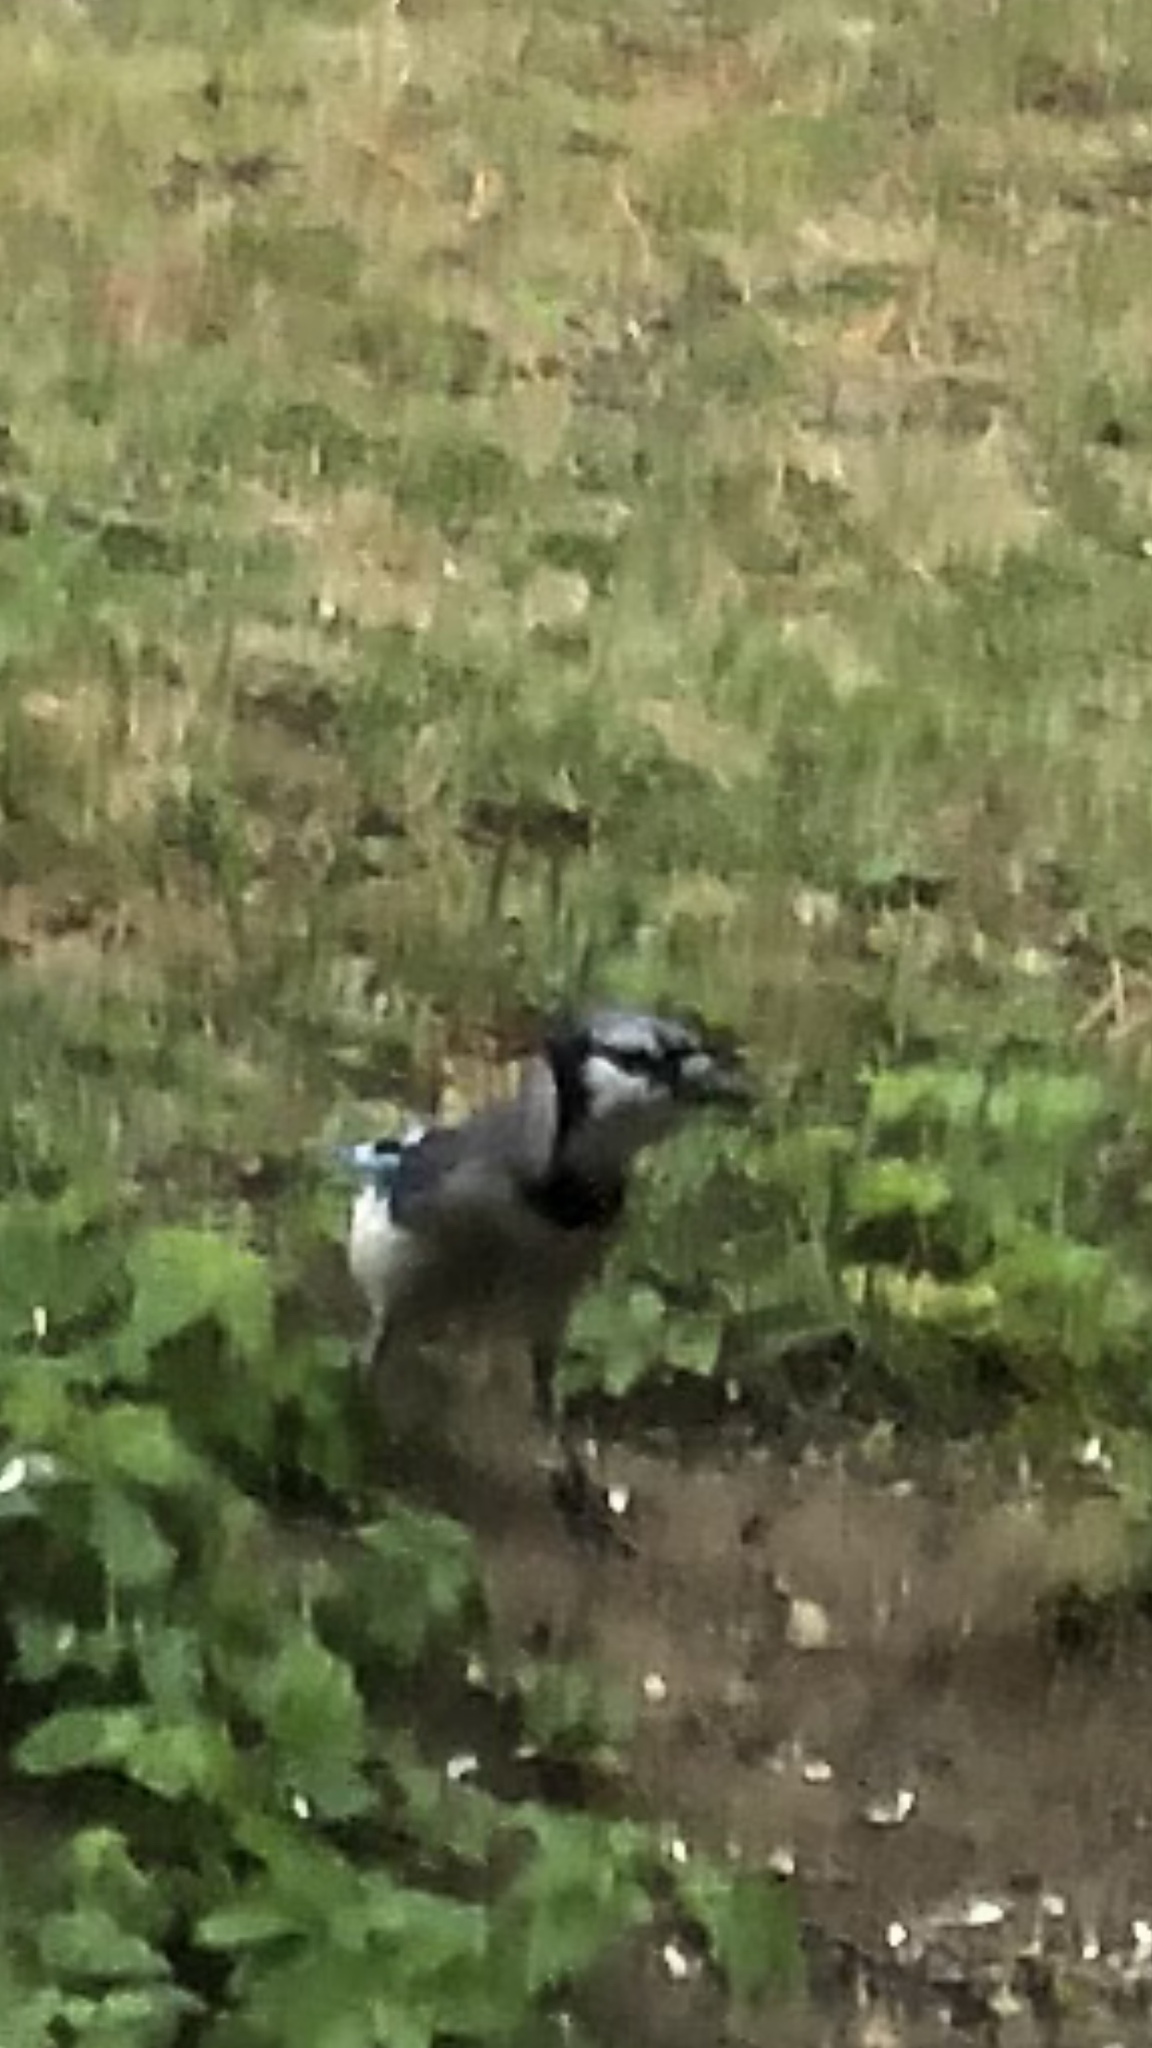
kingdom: Animalia
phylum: Chordata
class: Aves
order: Passeriformes
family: Corvidae
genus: Cyanocitta
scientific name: Cyanocitta cristata
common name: Blue jay
